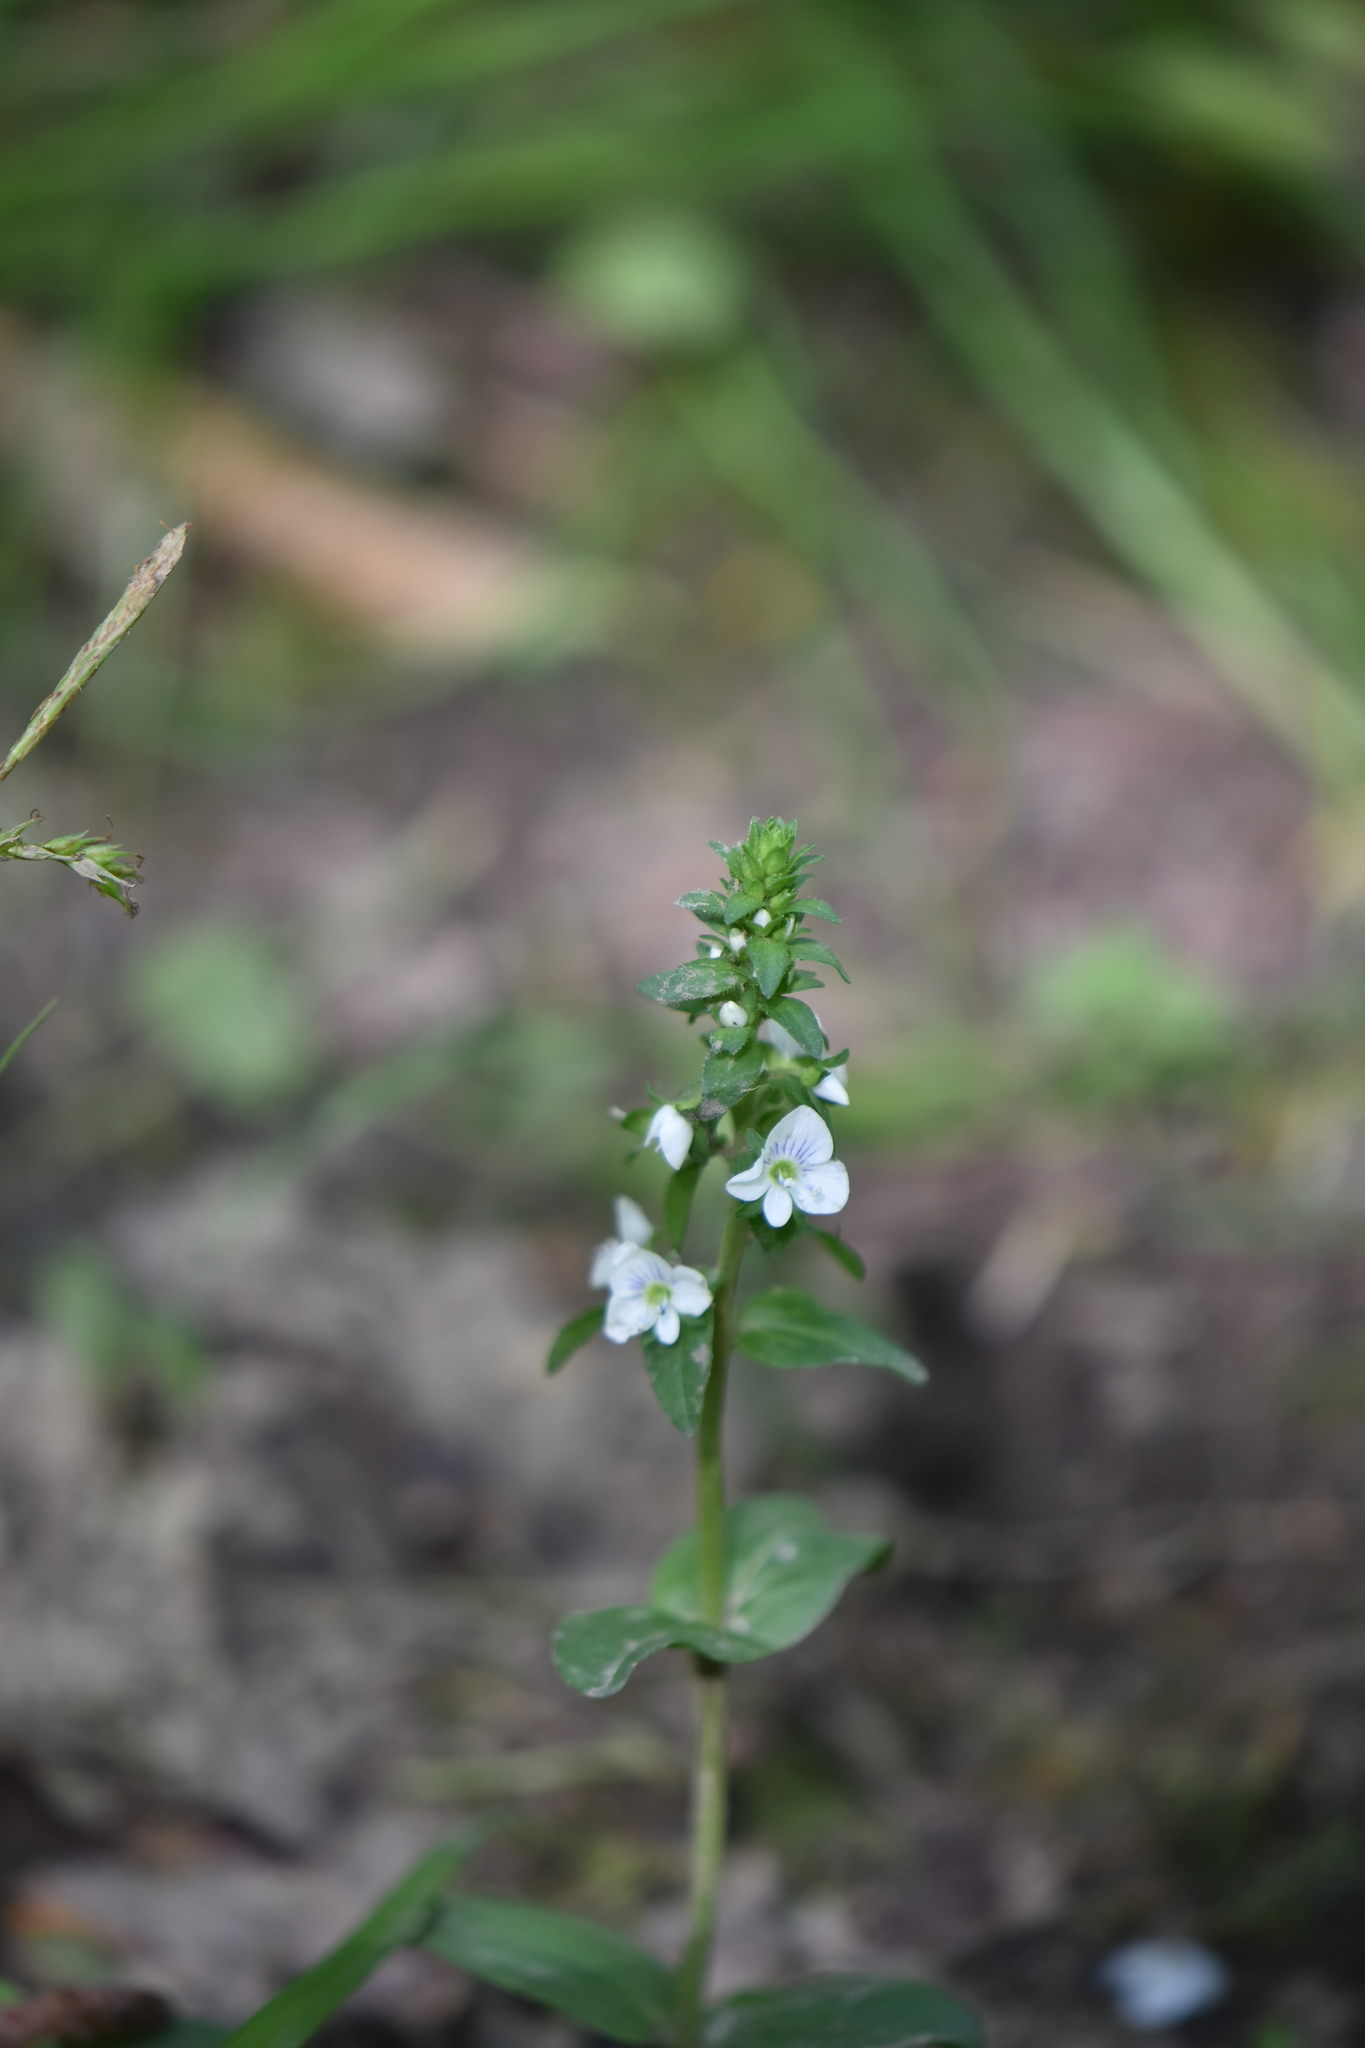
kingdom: Plantae
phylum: Tracheophyta
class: Magnoliopsida
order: Lamiales
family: Plantaginaceae
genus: Veronica
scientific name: Veronica serpyllifolia
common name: Thyme-leaved speedwell
